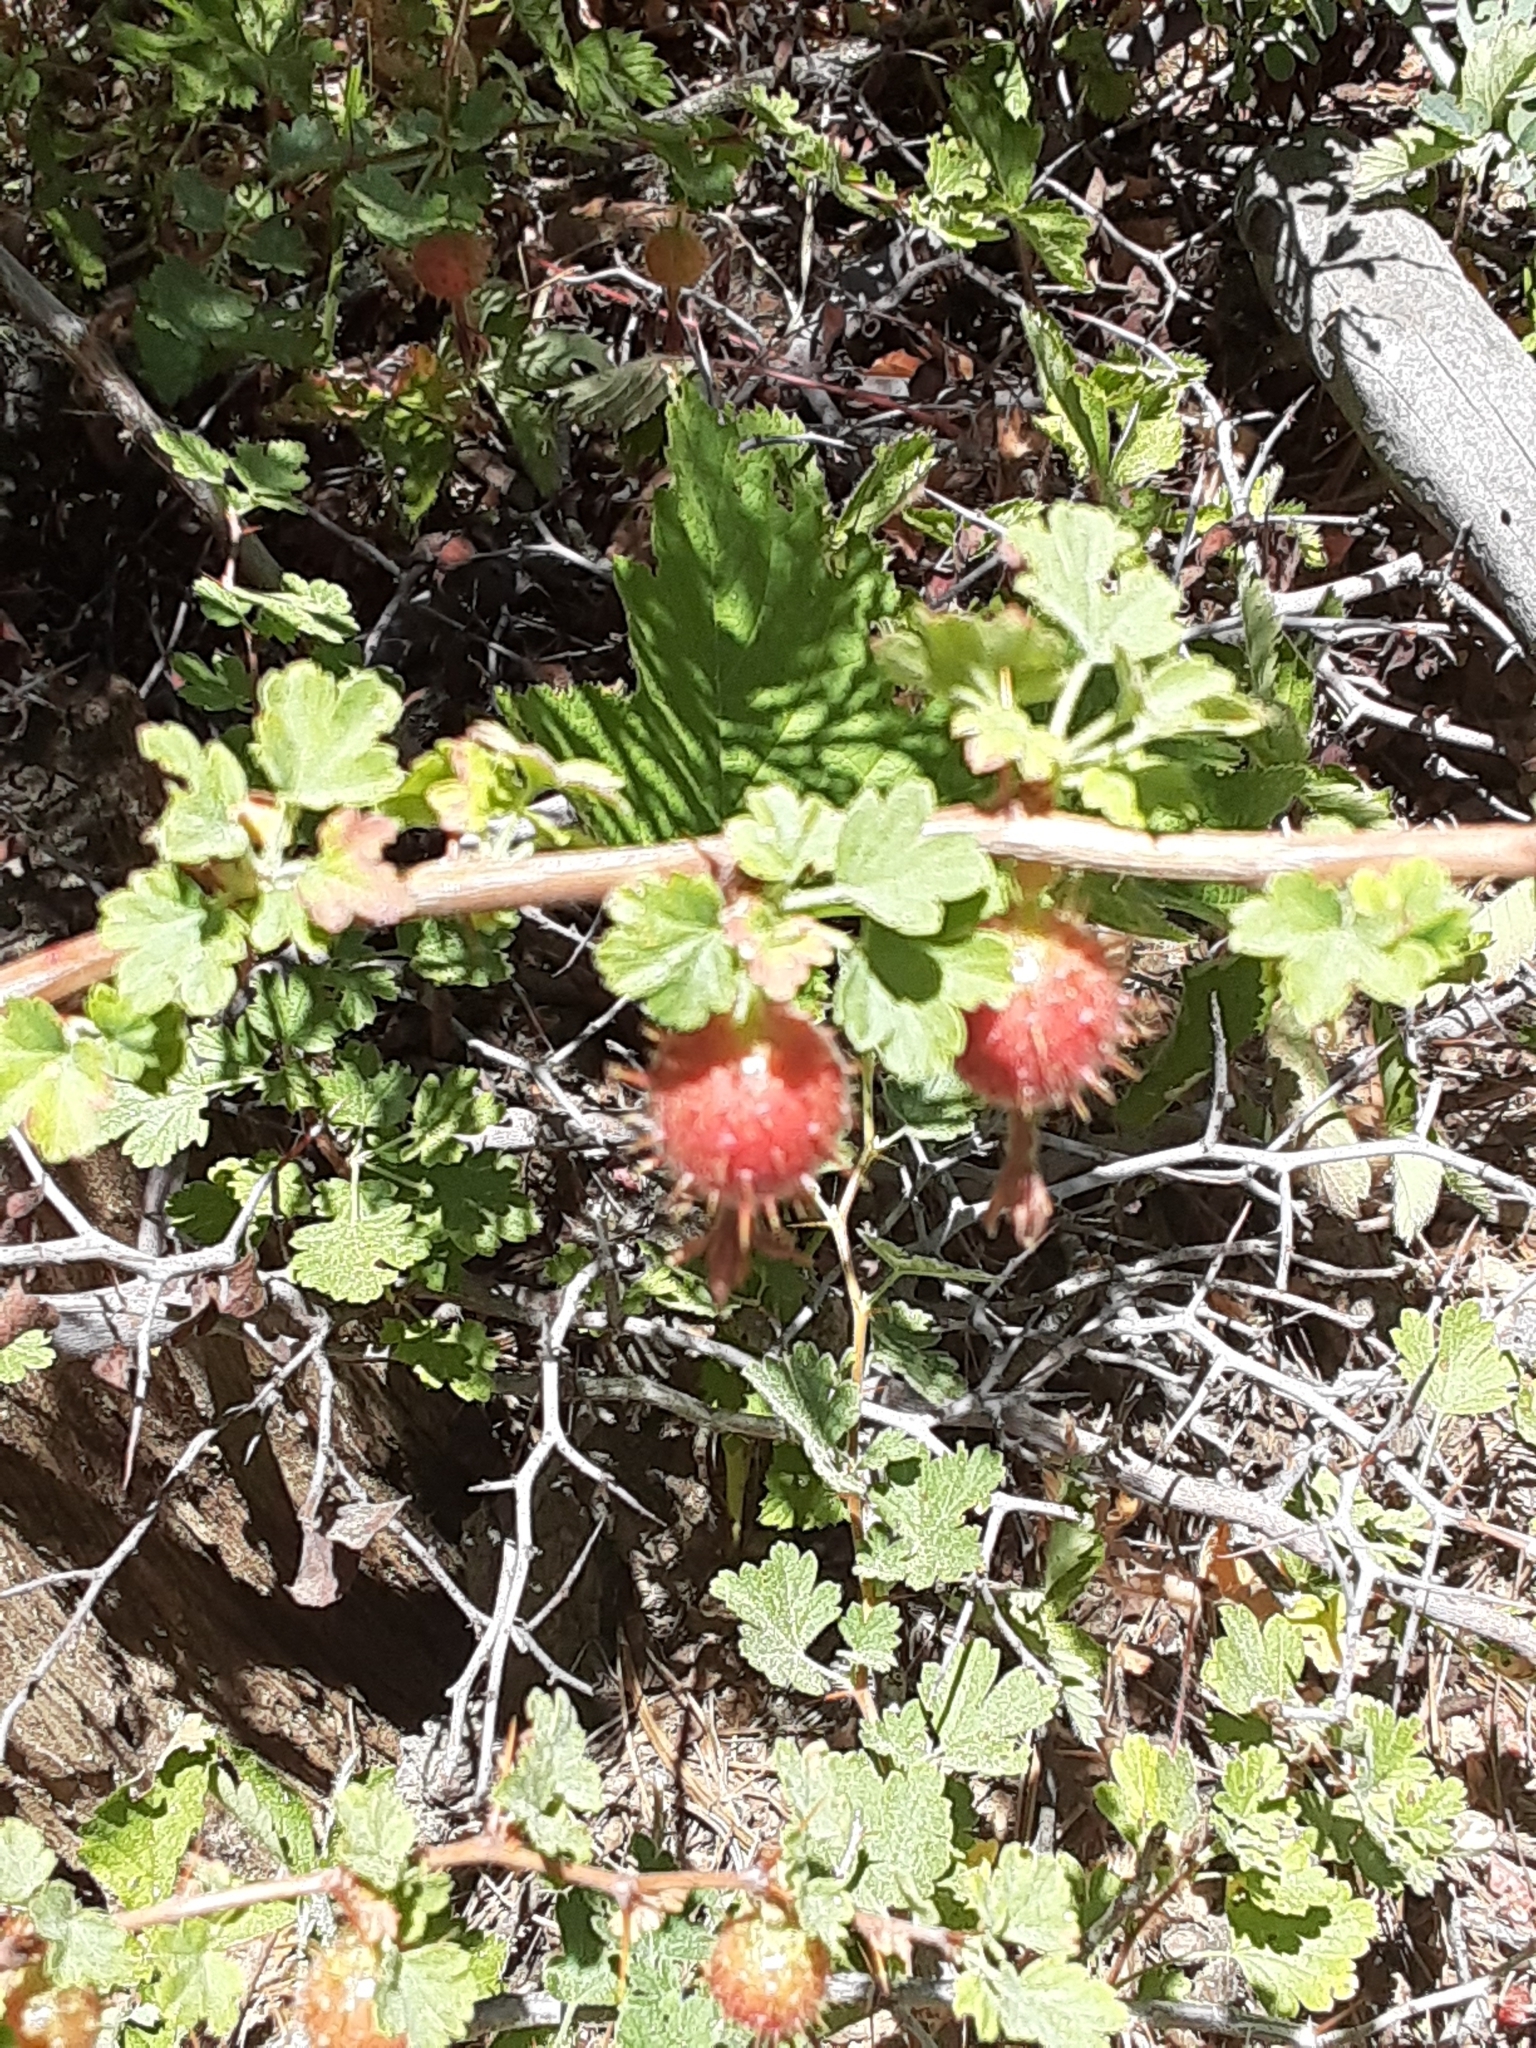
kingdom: Plantae
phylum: Tracheophyta
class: Magnoliopsida
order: Saxifragales
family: Grossulariaceae
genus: Ribes
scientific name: Ribes roezlii
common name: Sierra gooseberry
